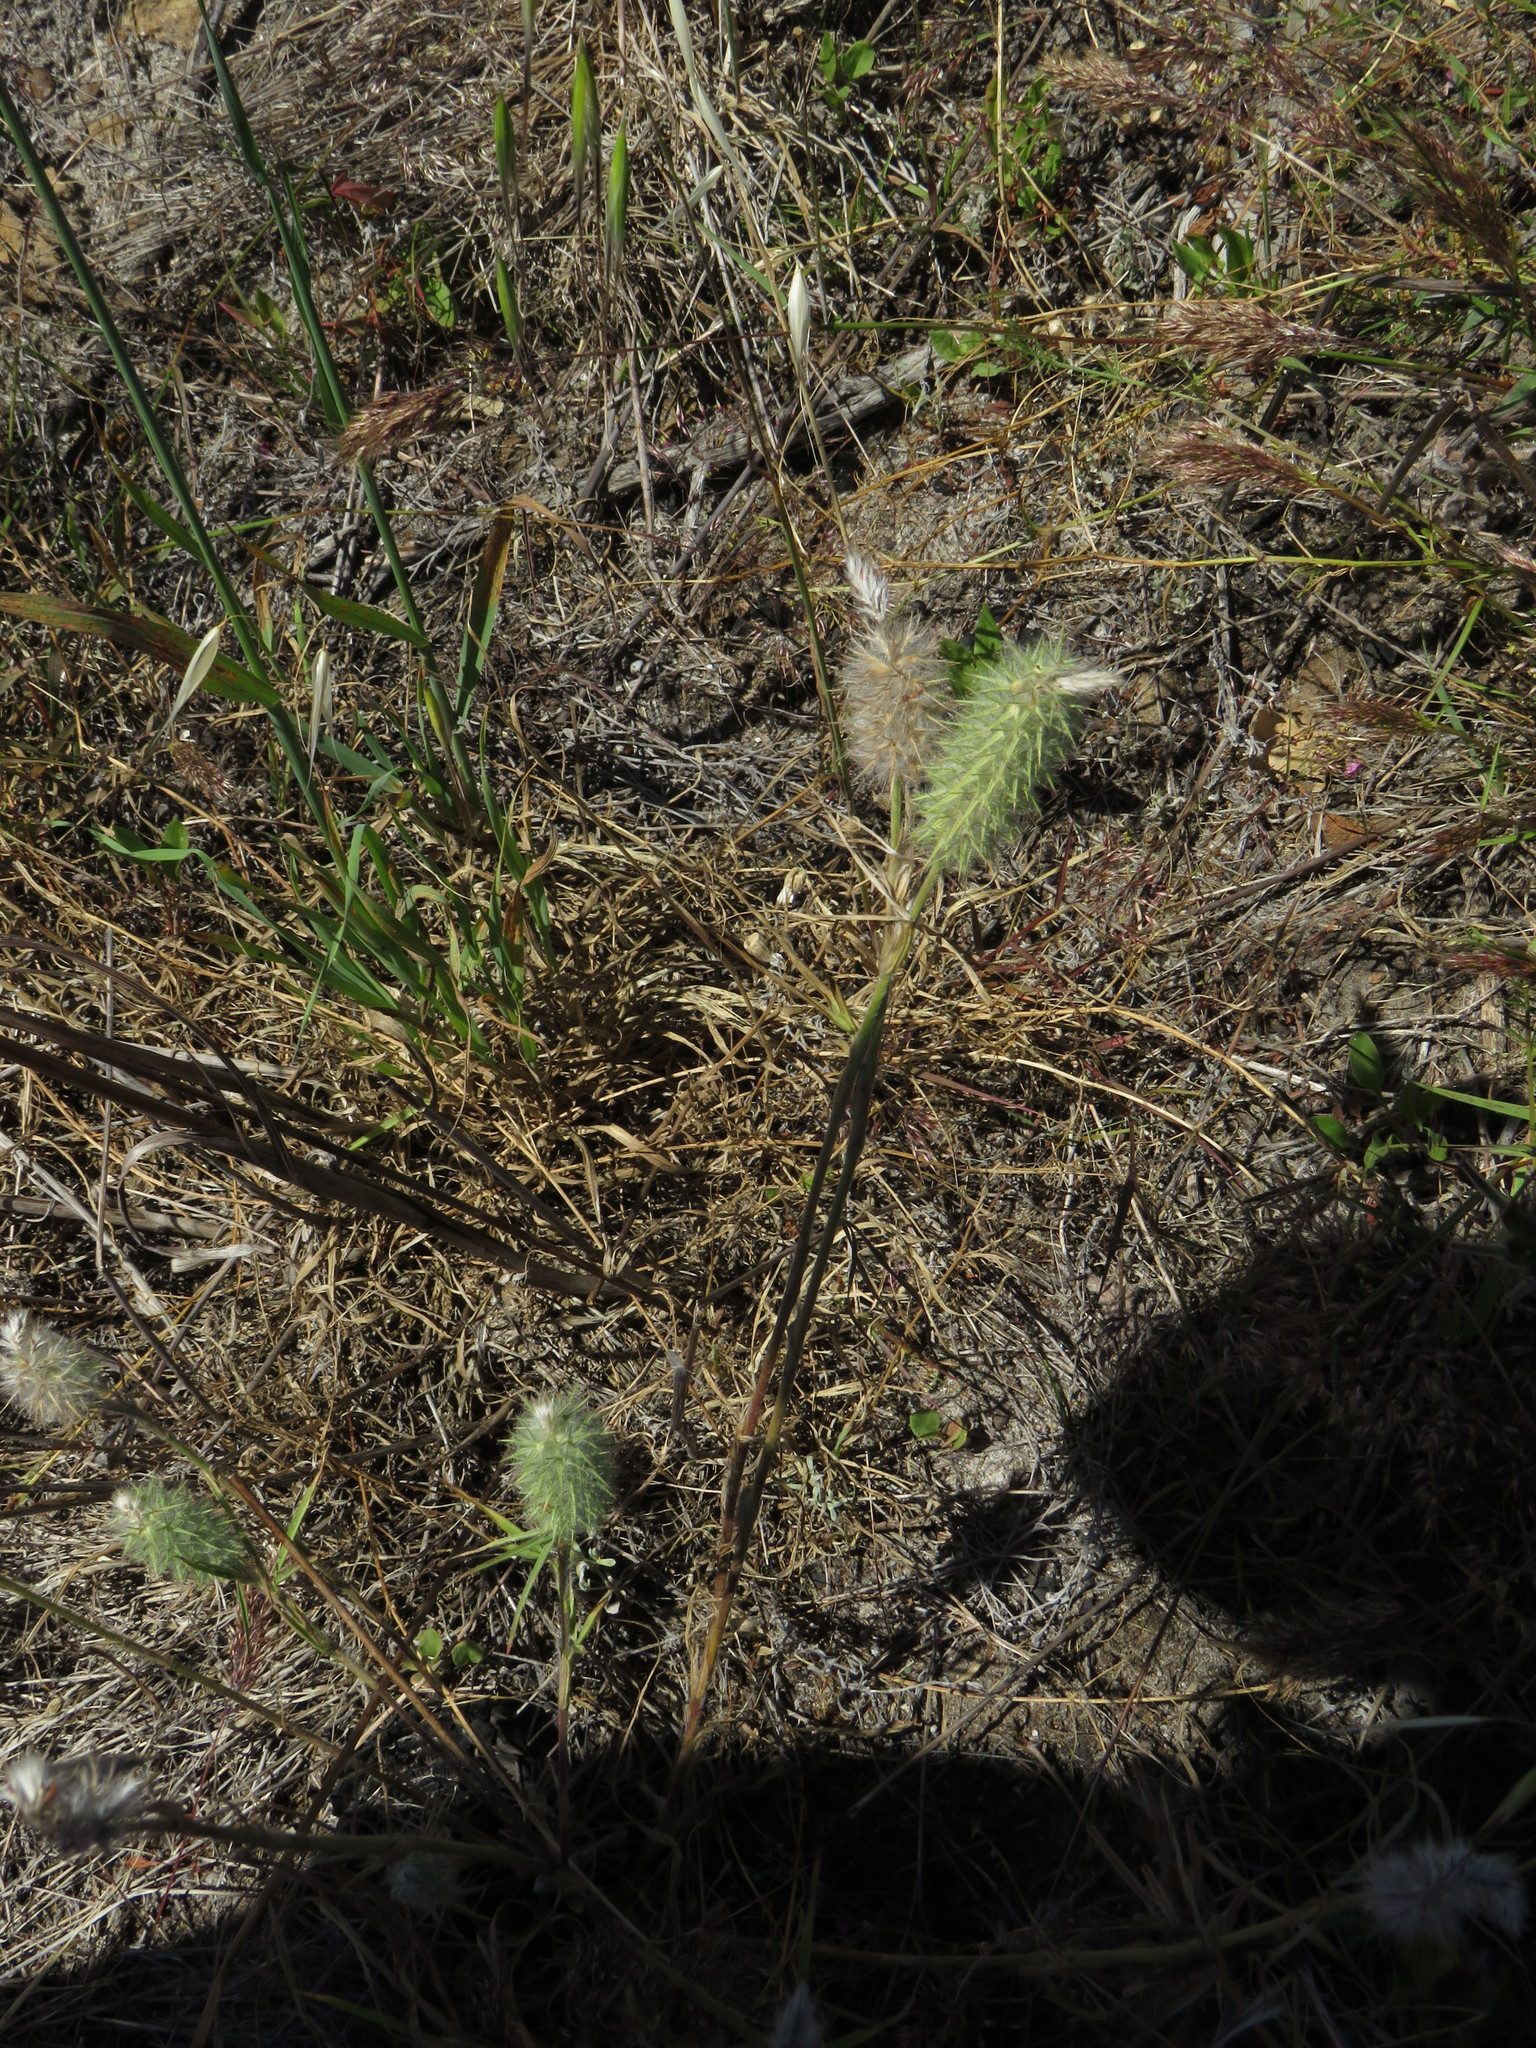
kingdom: Plantae
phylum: Tracheophyta
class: Magnoliopsida
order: Fabales
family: Fabaceae
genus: Trifolium
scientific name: Trifolium angustifolium
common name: Narrow clover
